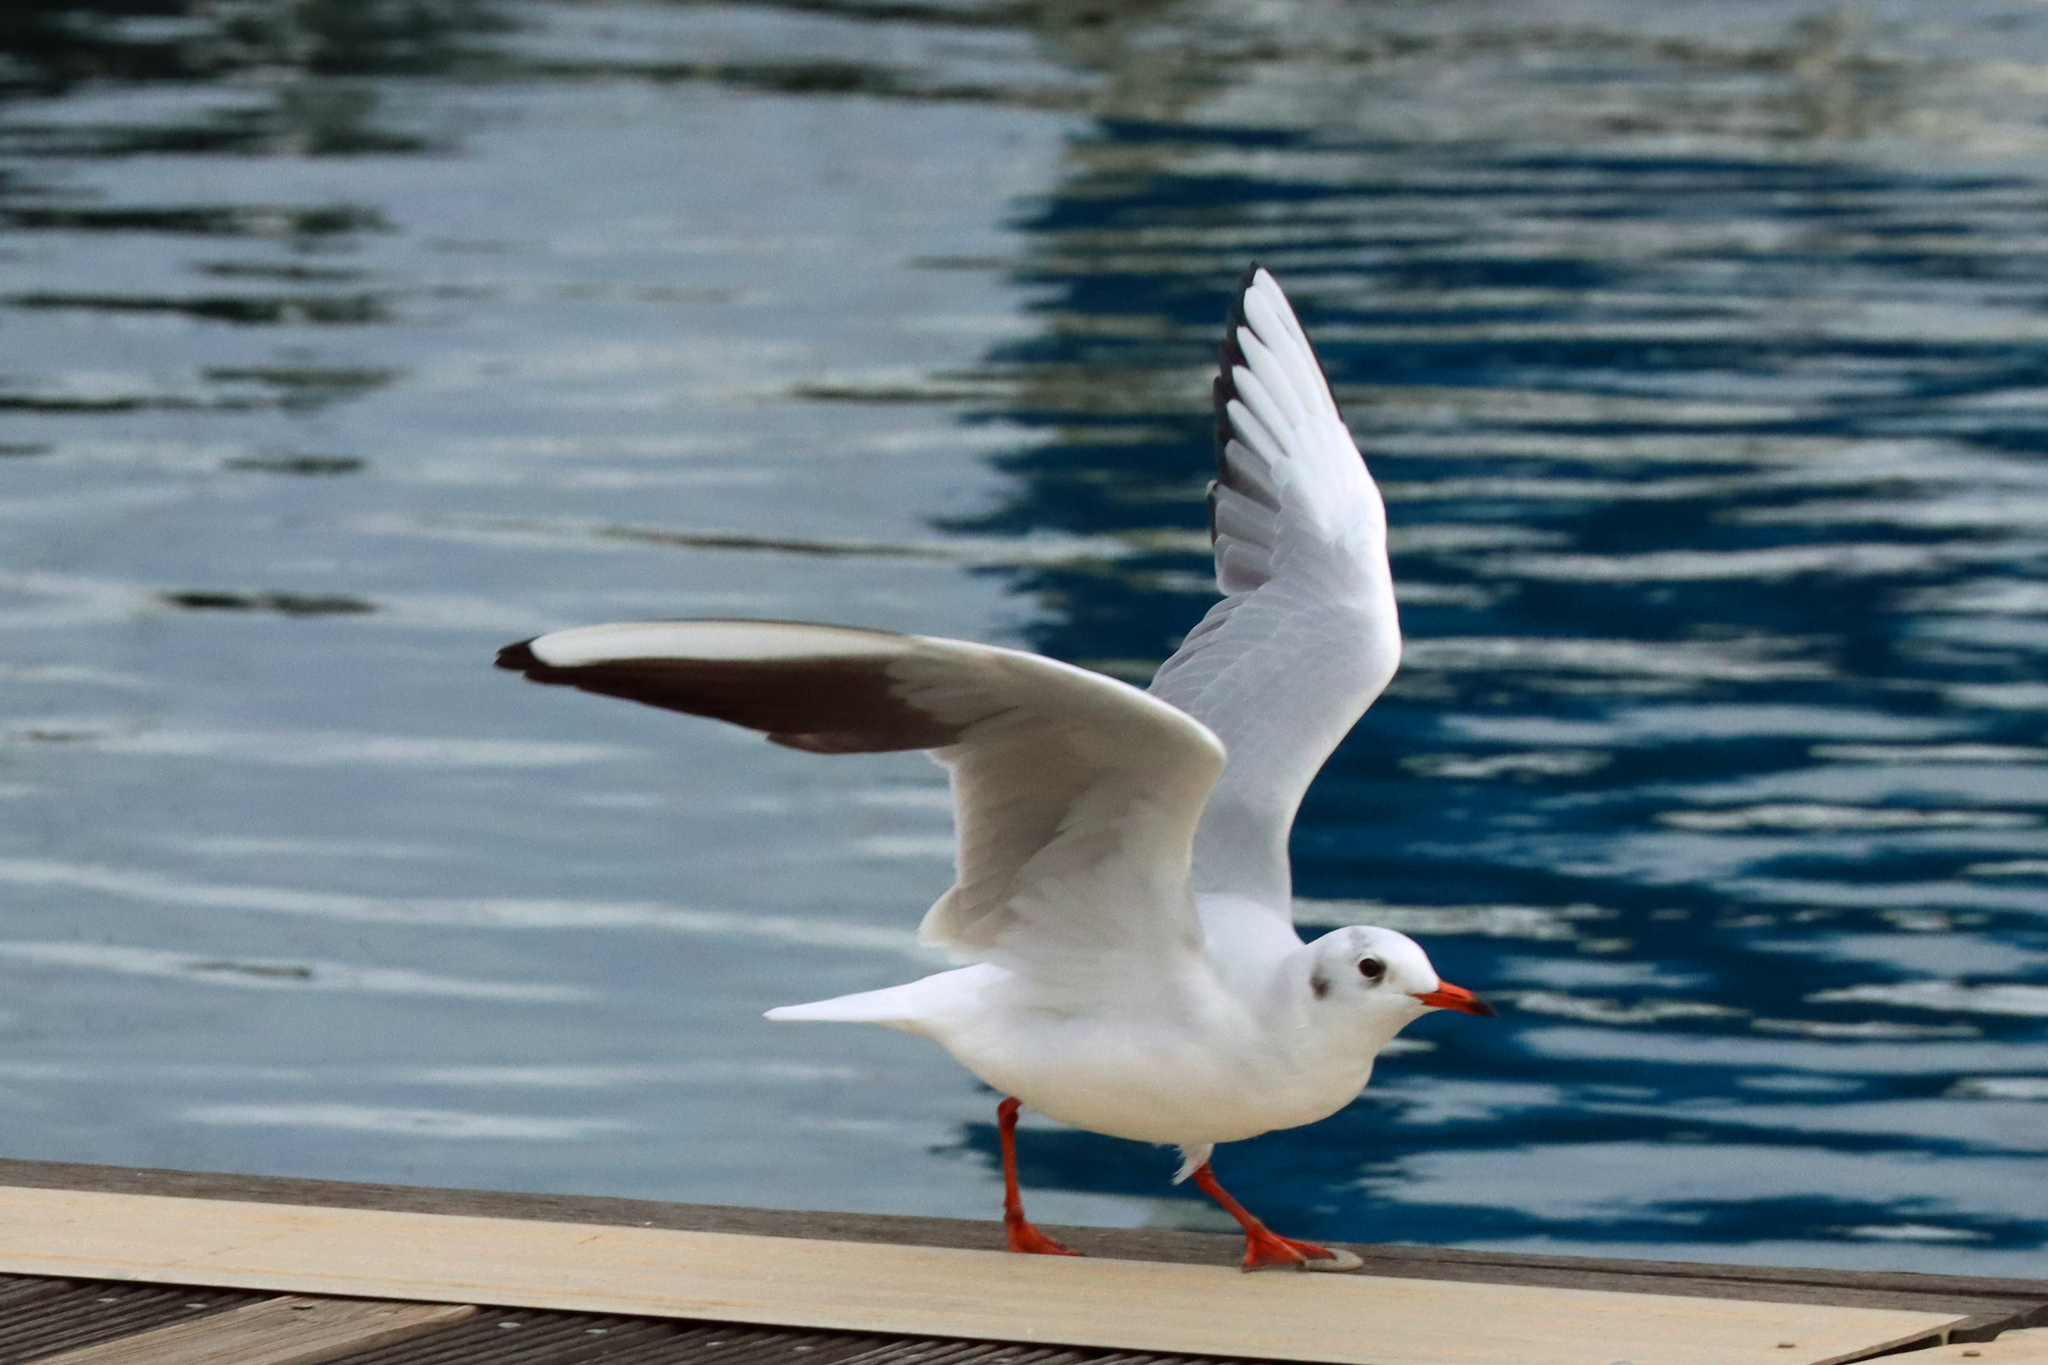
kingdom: Animalia
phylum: Chordata
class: Aves
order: Charadriiformes
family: Laridae
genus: Chroicocephalus
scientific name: Chroicocephalus ridibundus
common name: Black-headed gull
